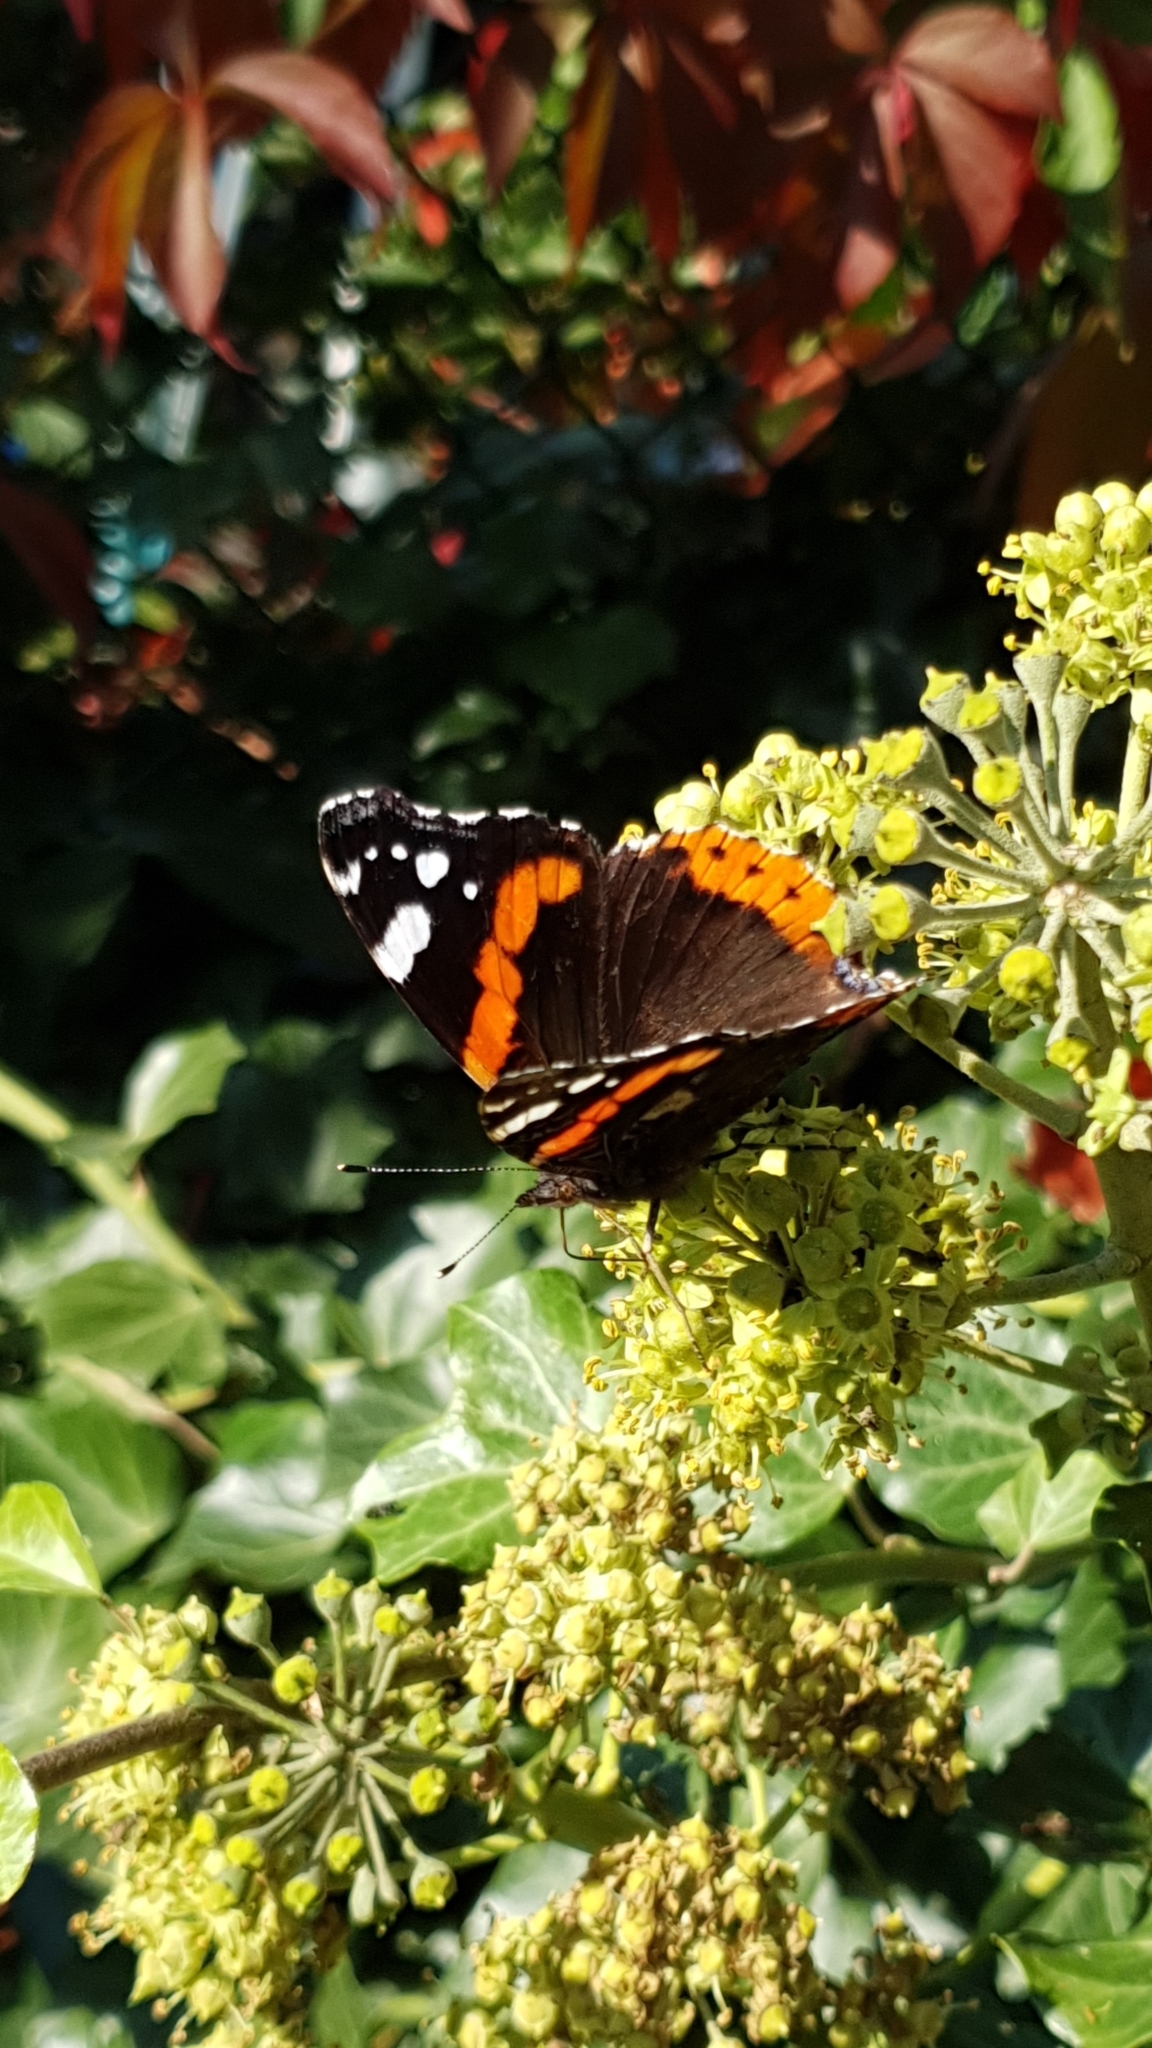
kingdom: Animalia
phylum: Arthropoda
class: Insecta
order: Lepidoptera
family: Nymphalidae
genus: Vanessa
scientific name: Vanessa atalanta
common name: Red admiral
